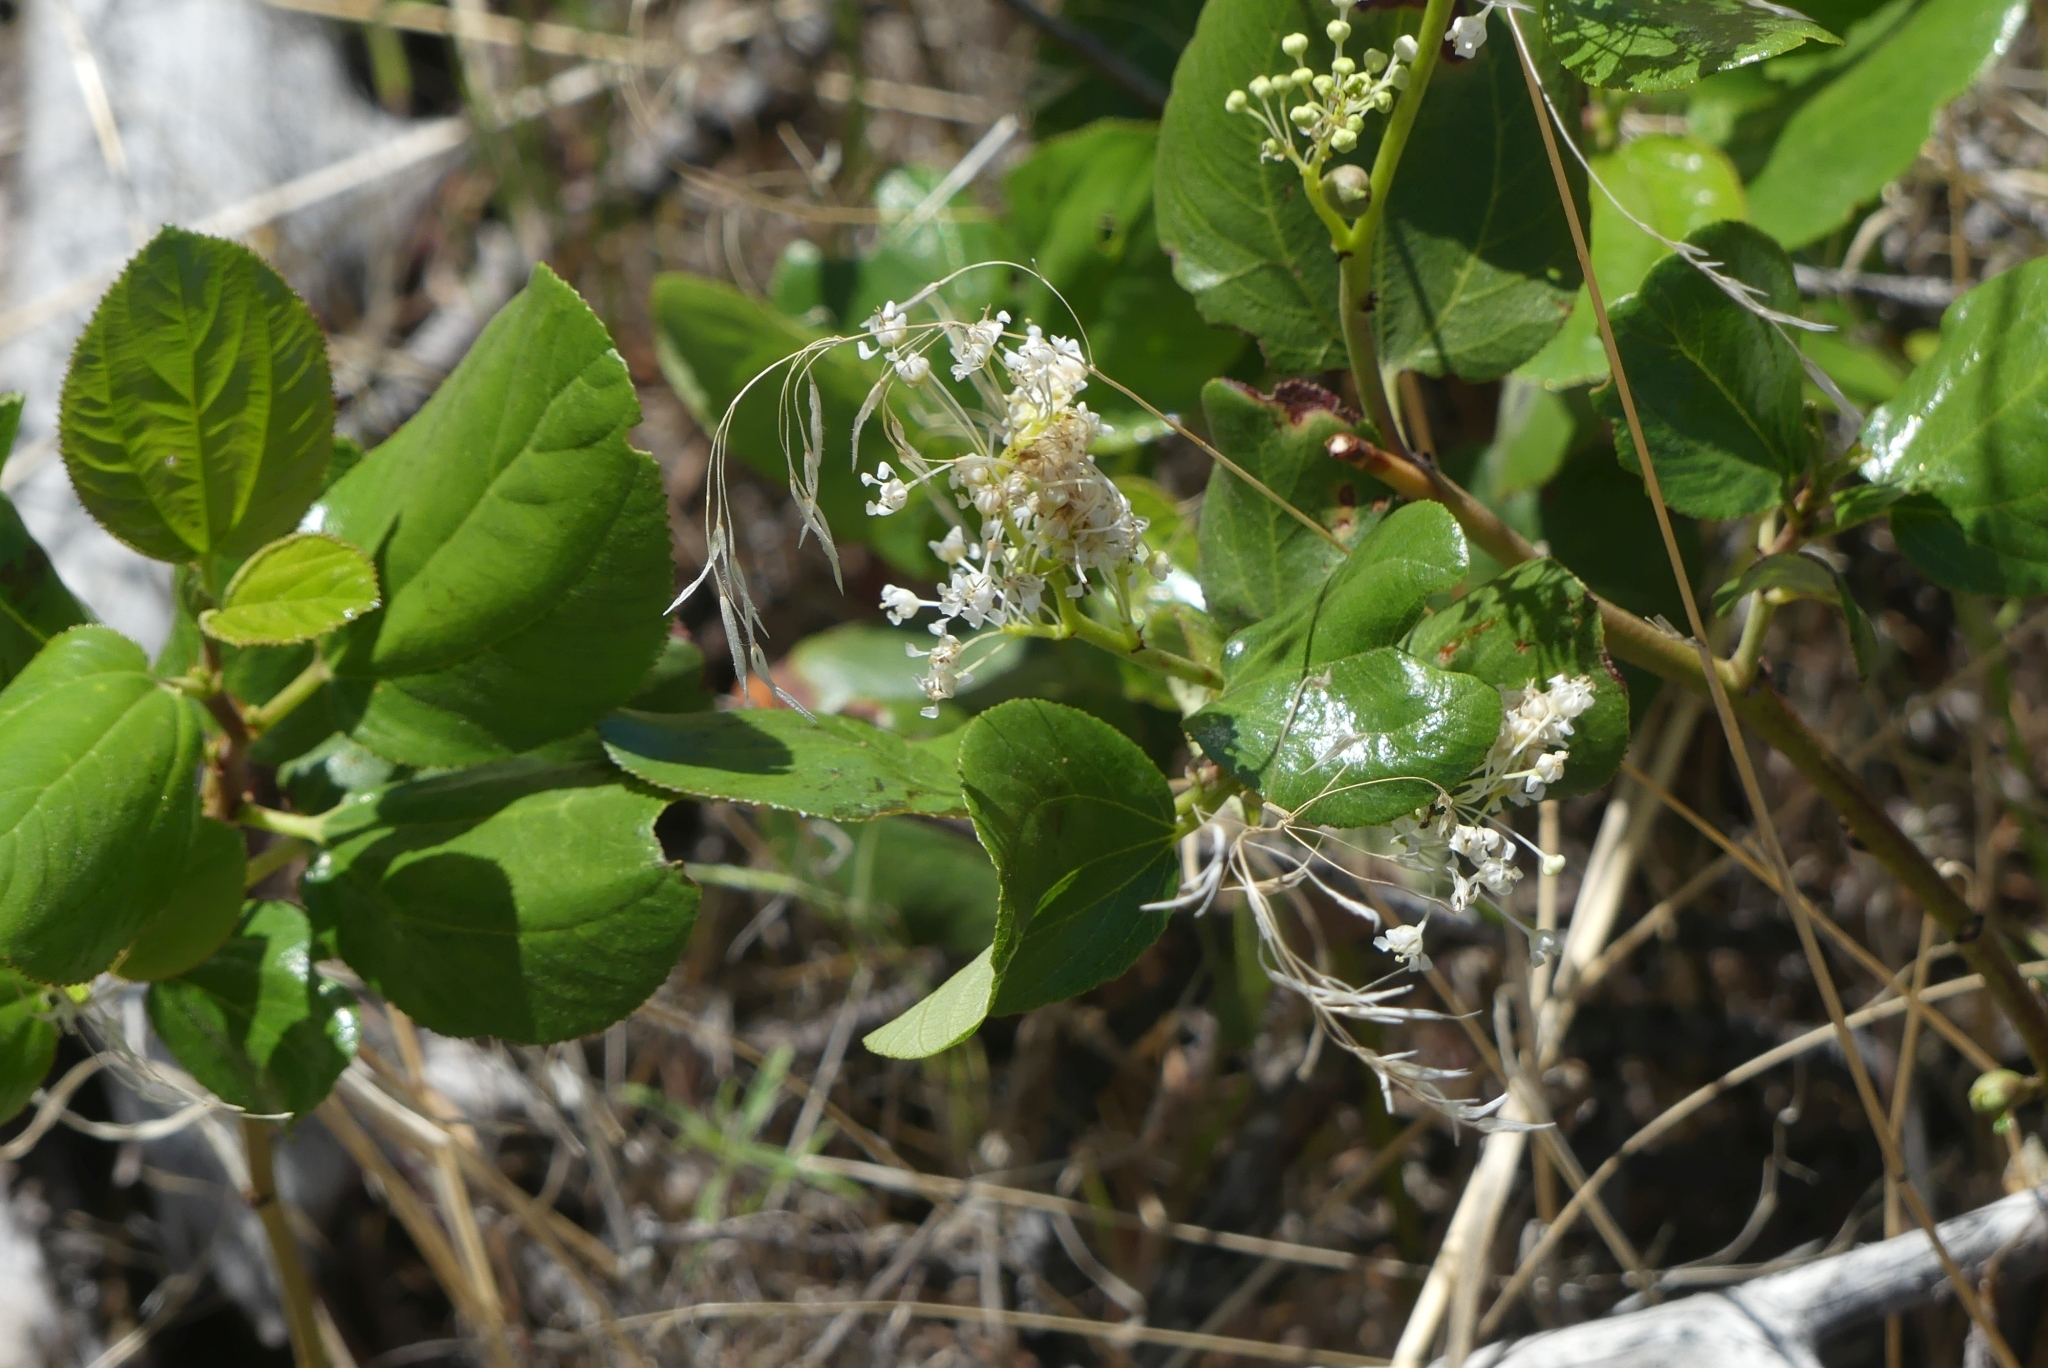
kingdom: Plantae
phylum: Tracheophyta
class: Magnoliopsida
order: Rosales
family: Rhamnaceae
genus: Ceanothus
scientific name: Ceanothus velutinus
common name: Snowbrush
